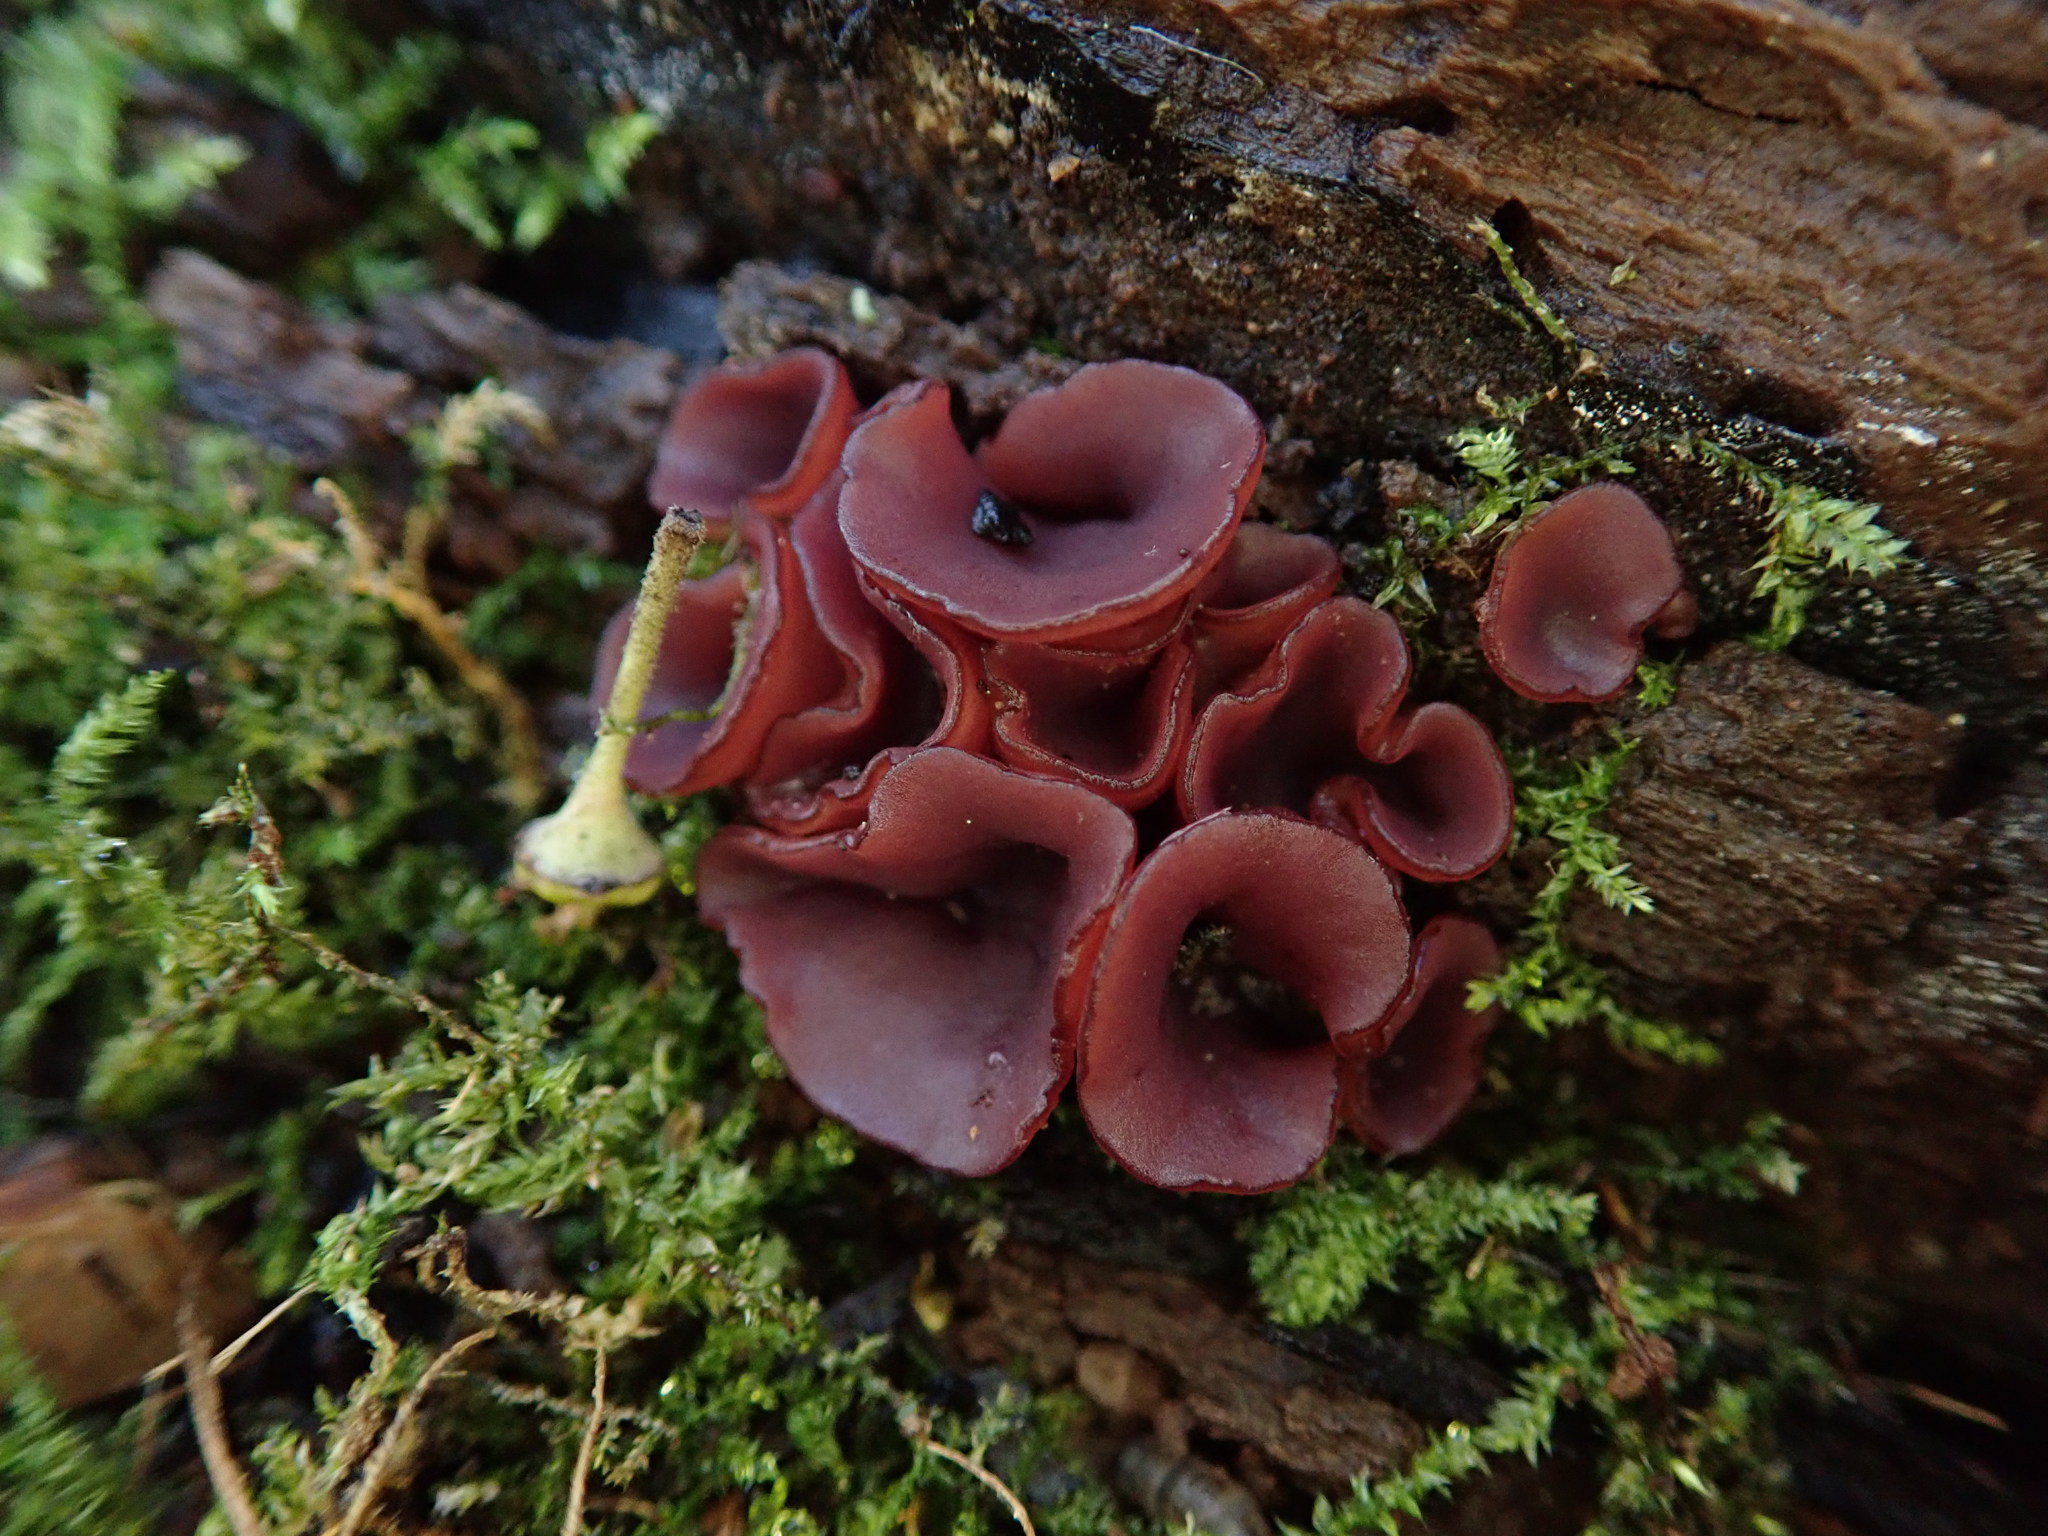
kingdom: Fungi
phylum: Ascomycota
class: Leotiomycetes
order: Helotiales
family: Gelatinodiscaceae
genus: Ascocoryne
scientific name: Ascocoryne sarcoides
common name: Purple jellydisc
